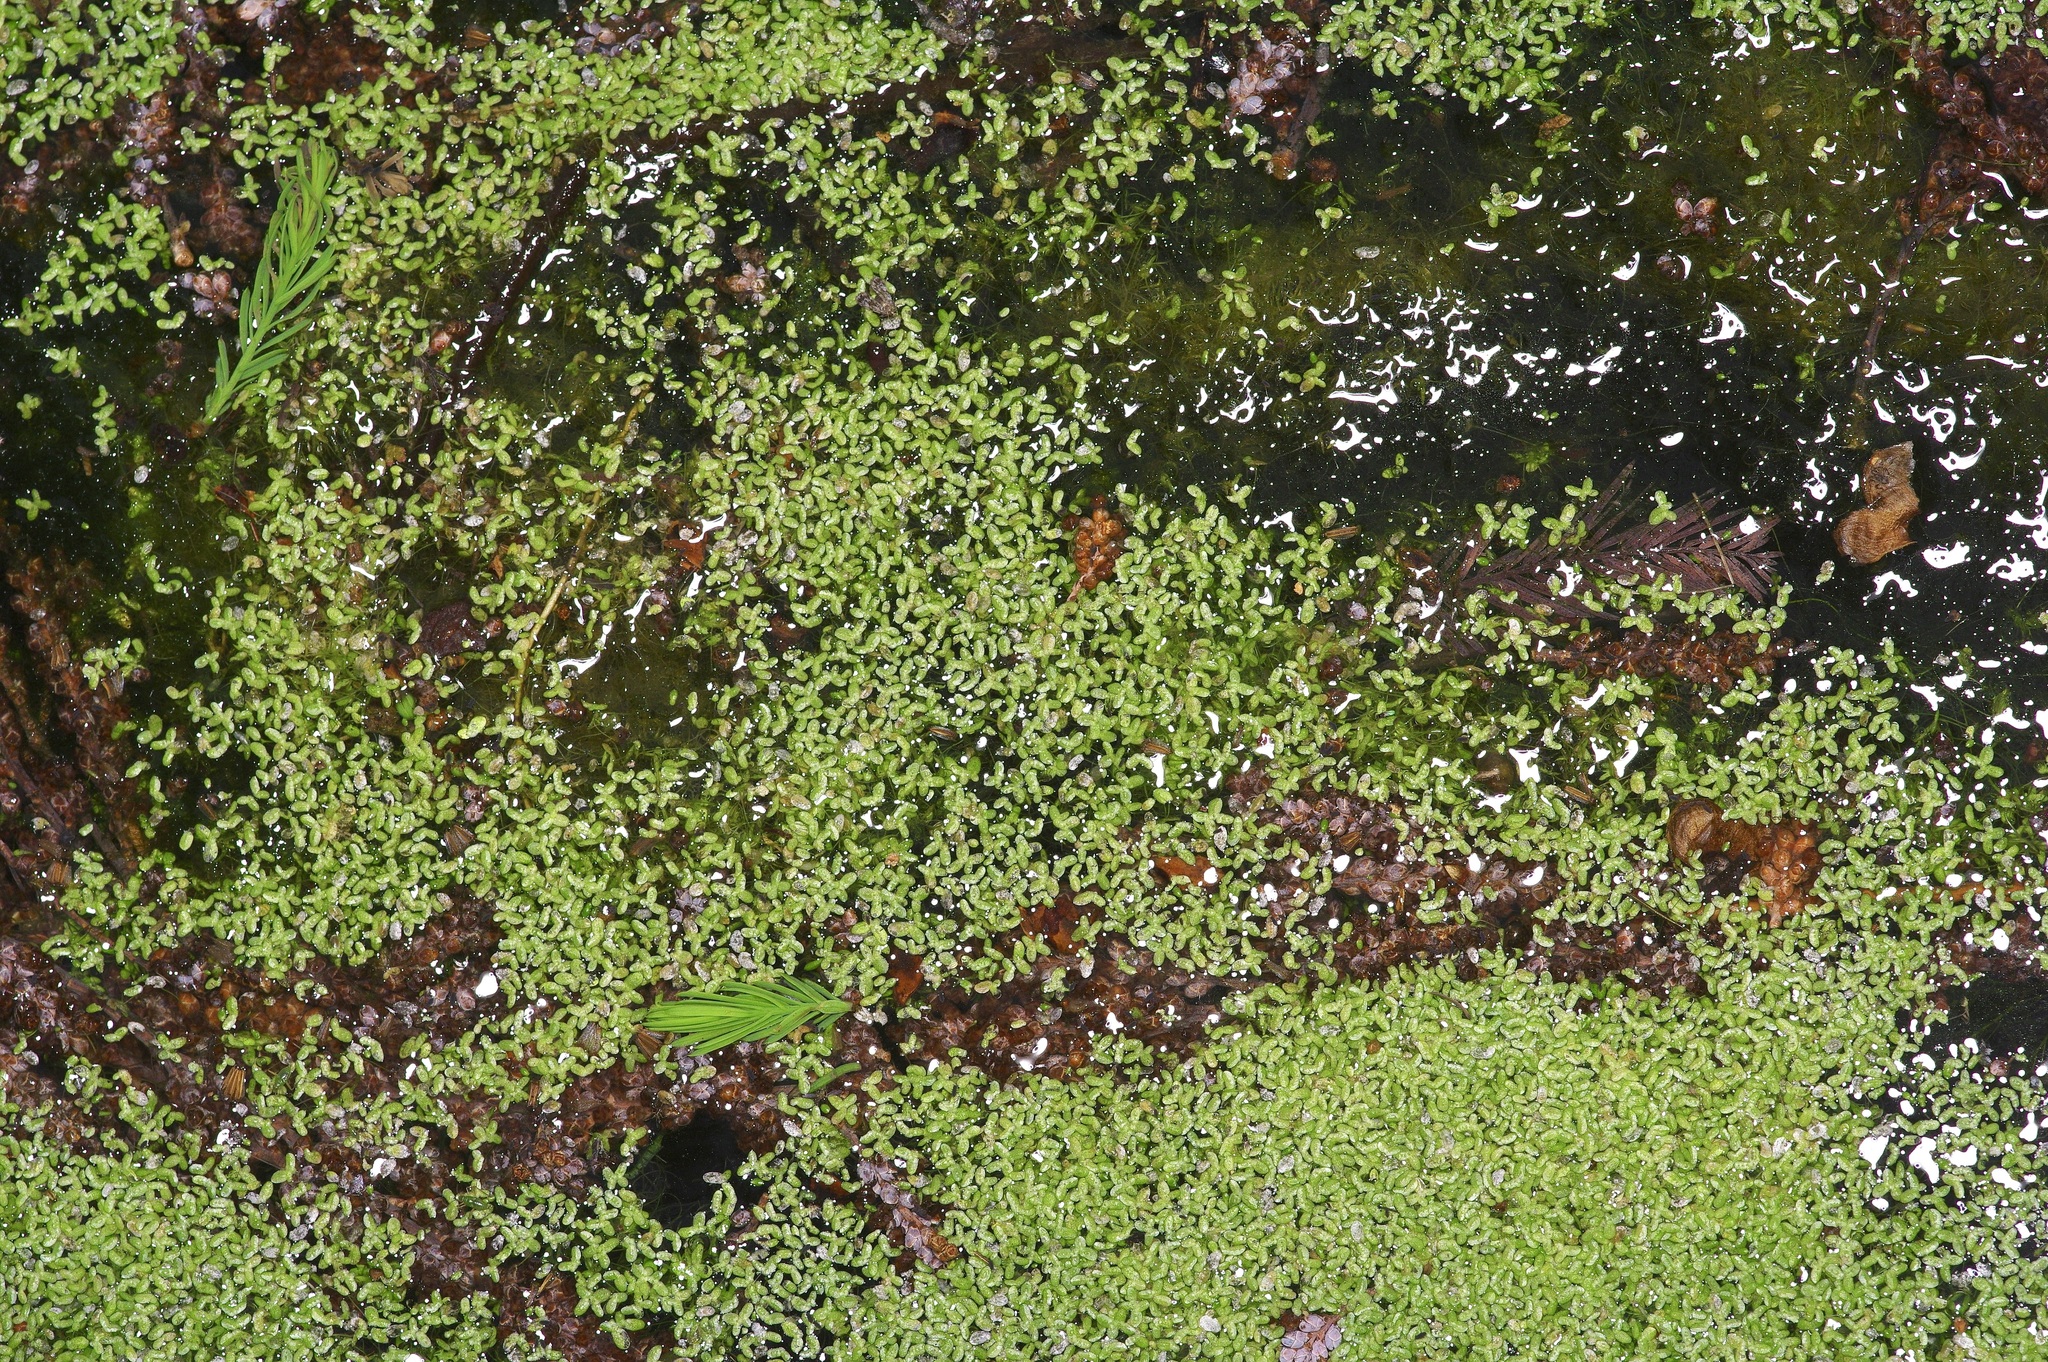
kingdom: Plantae
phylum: Tracheophyta
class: Liliopsida
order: Alismatales
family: Araceae
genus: Lemna
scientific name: Lemna aequinoctialis
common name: Duckweed
